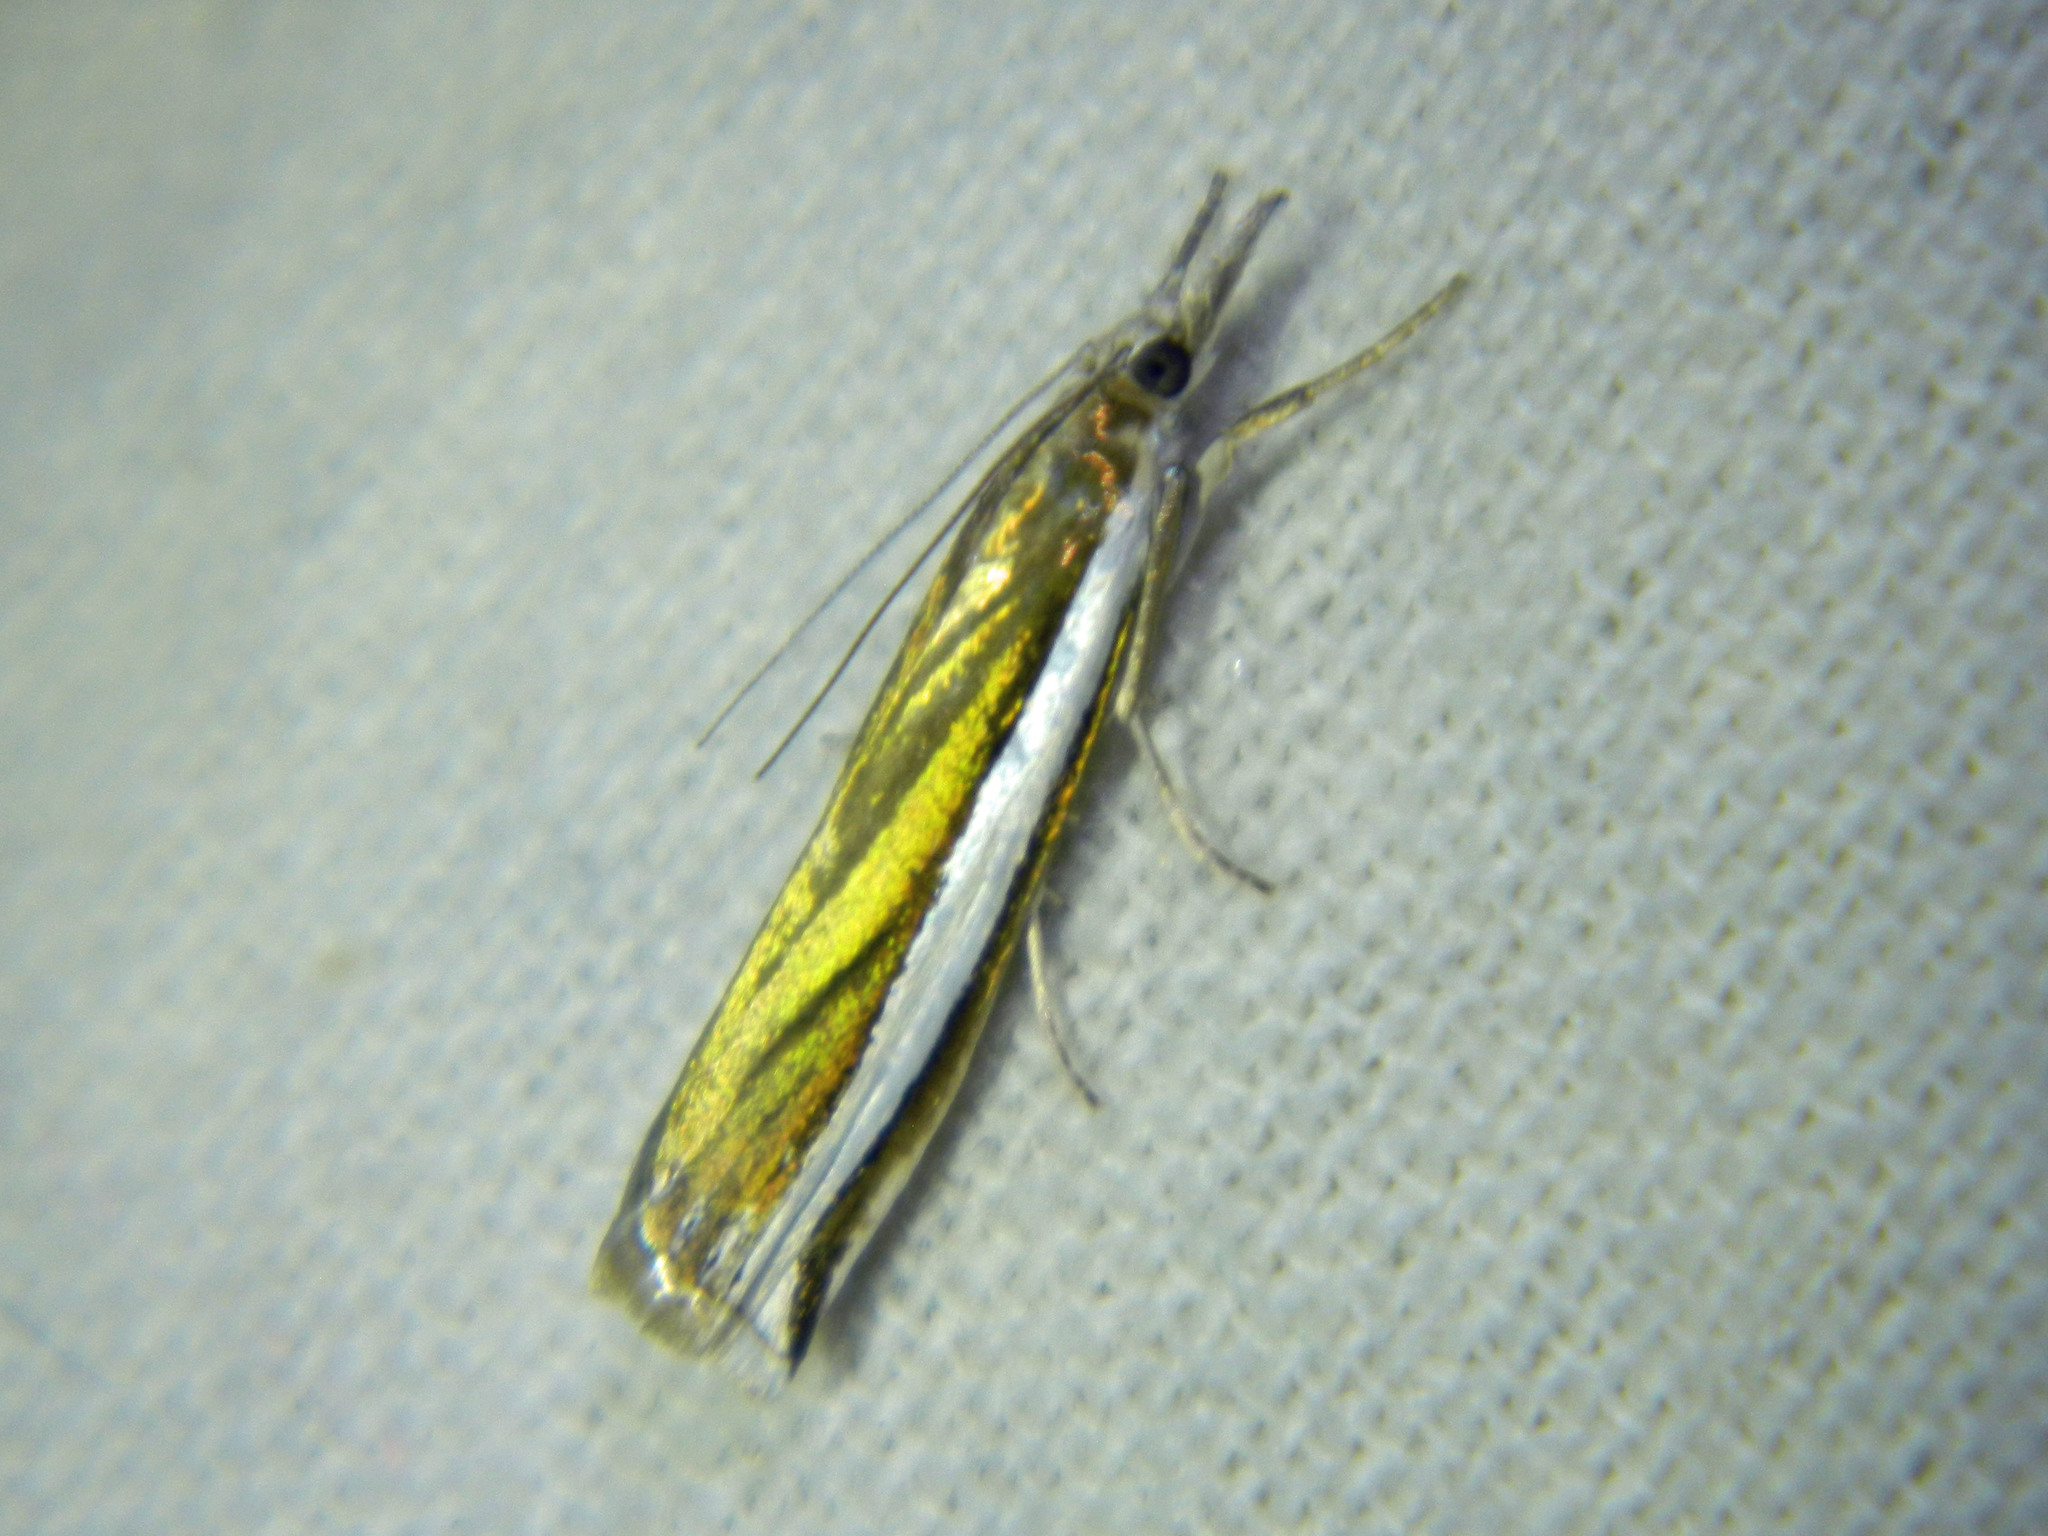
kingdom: Animalia
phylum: Arthropoda
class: Insecta
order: Lepidoptera
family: Crambidae
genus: Crambus
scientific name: Crambus unistriatellus
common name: Wide-stripe grass-veneer moth
